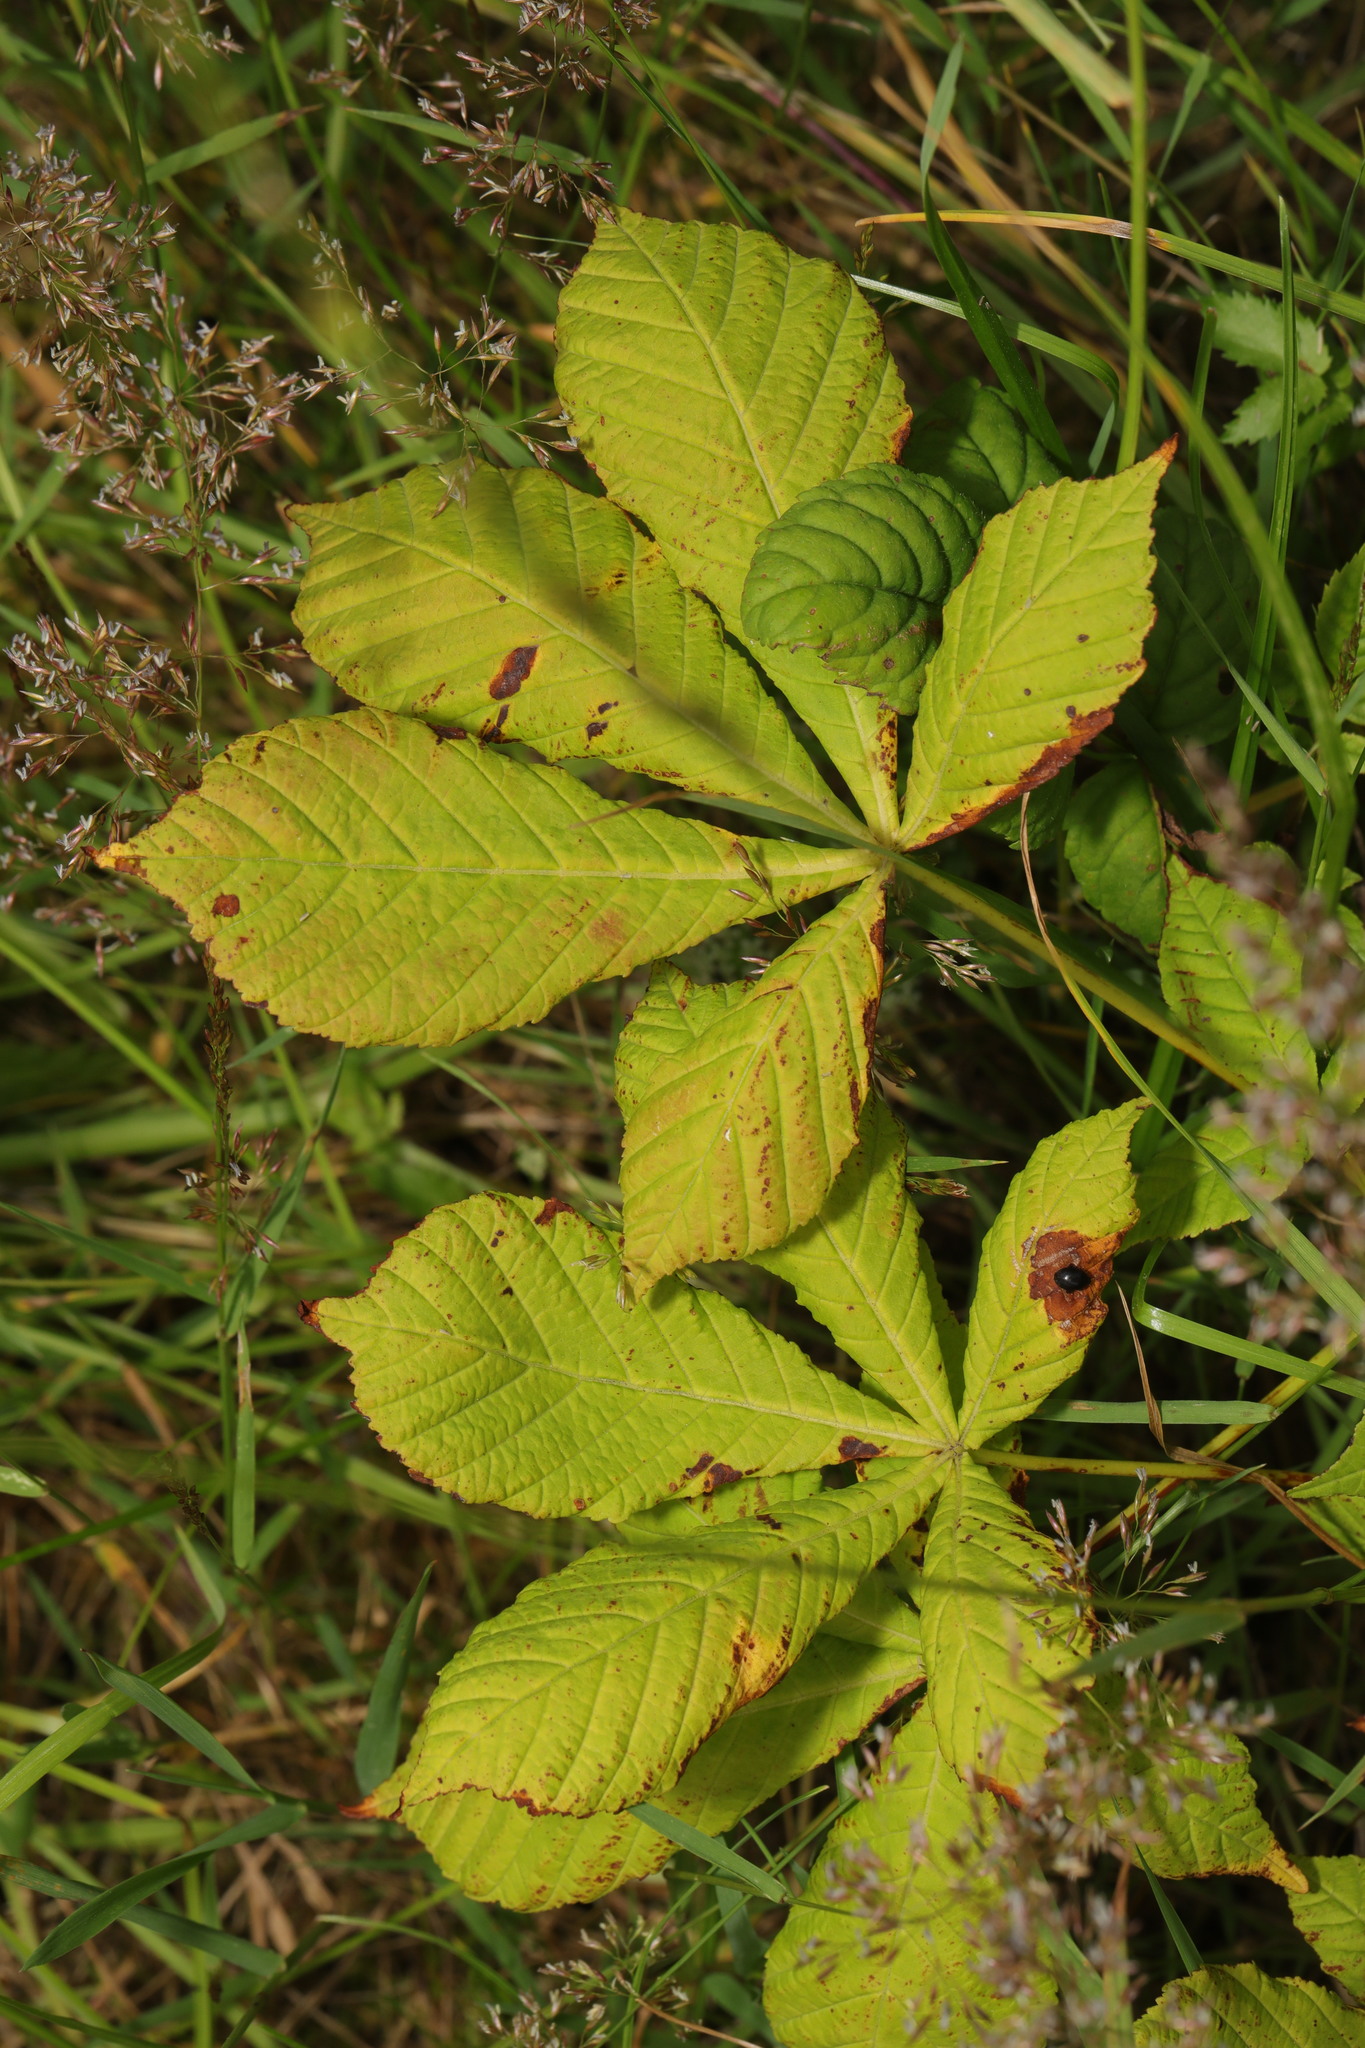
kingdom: Plantae
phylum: Tracheophyta
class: Magnoliopsida
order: Sapindales
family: Sapindaceae
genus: Aesculus
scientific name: Aesculus hippocastanum
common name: Horse-chestnut
